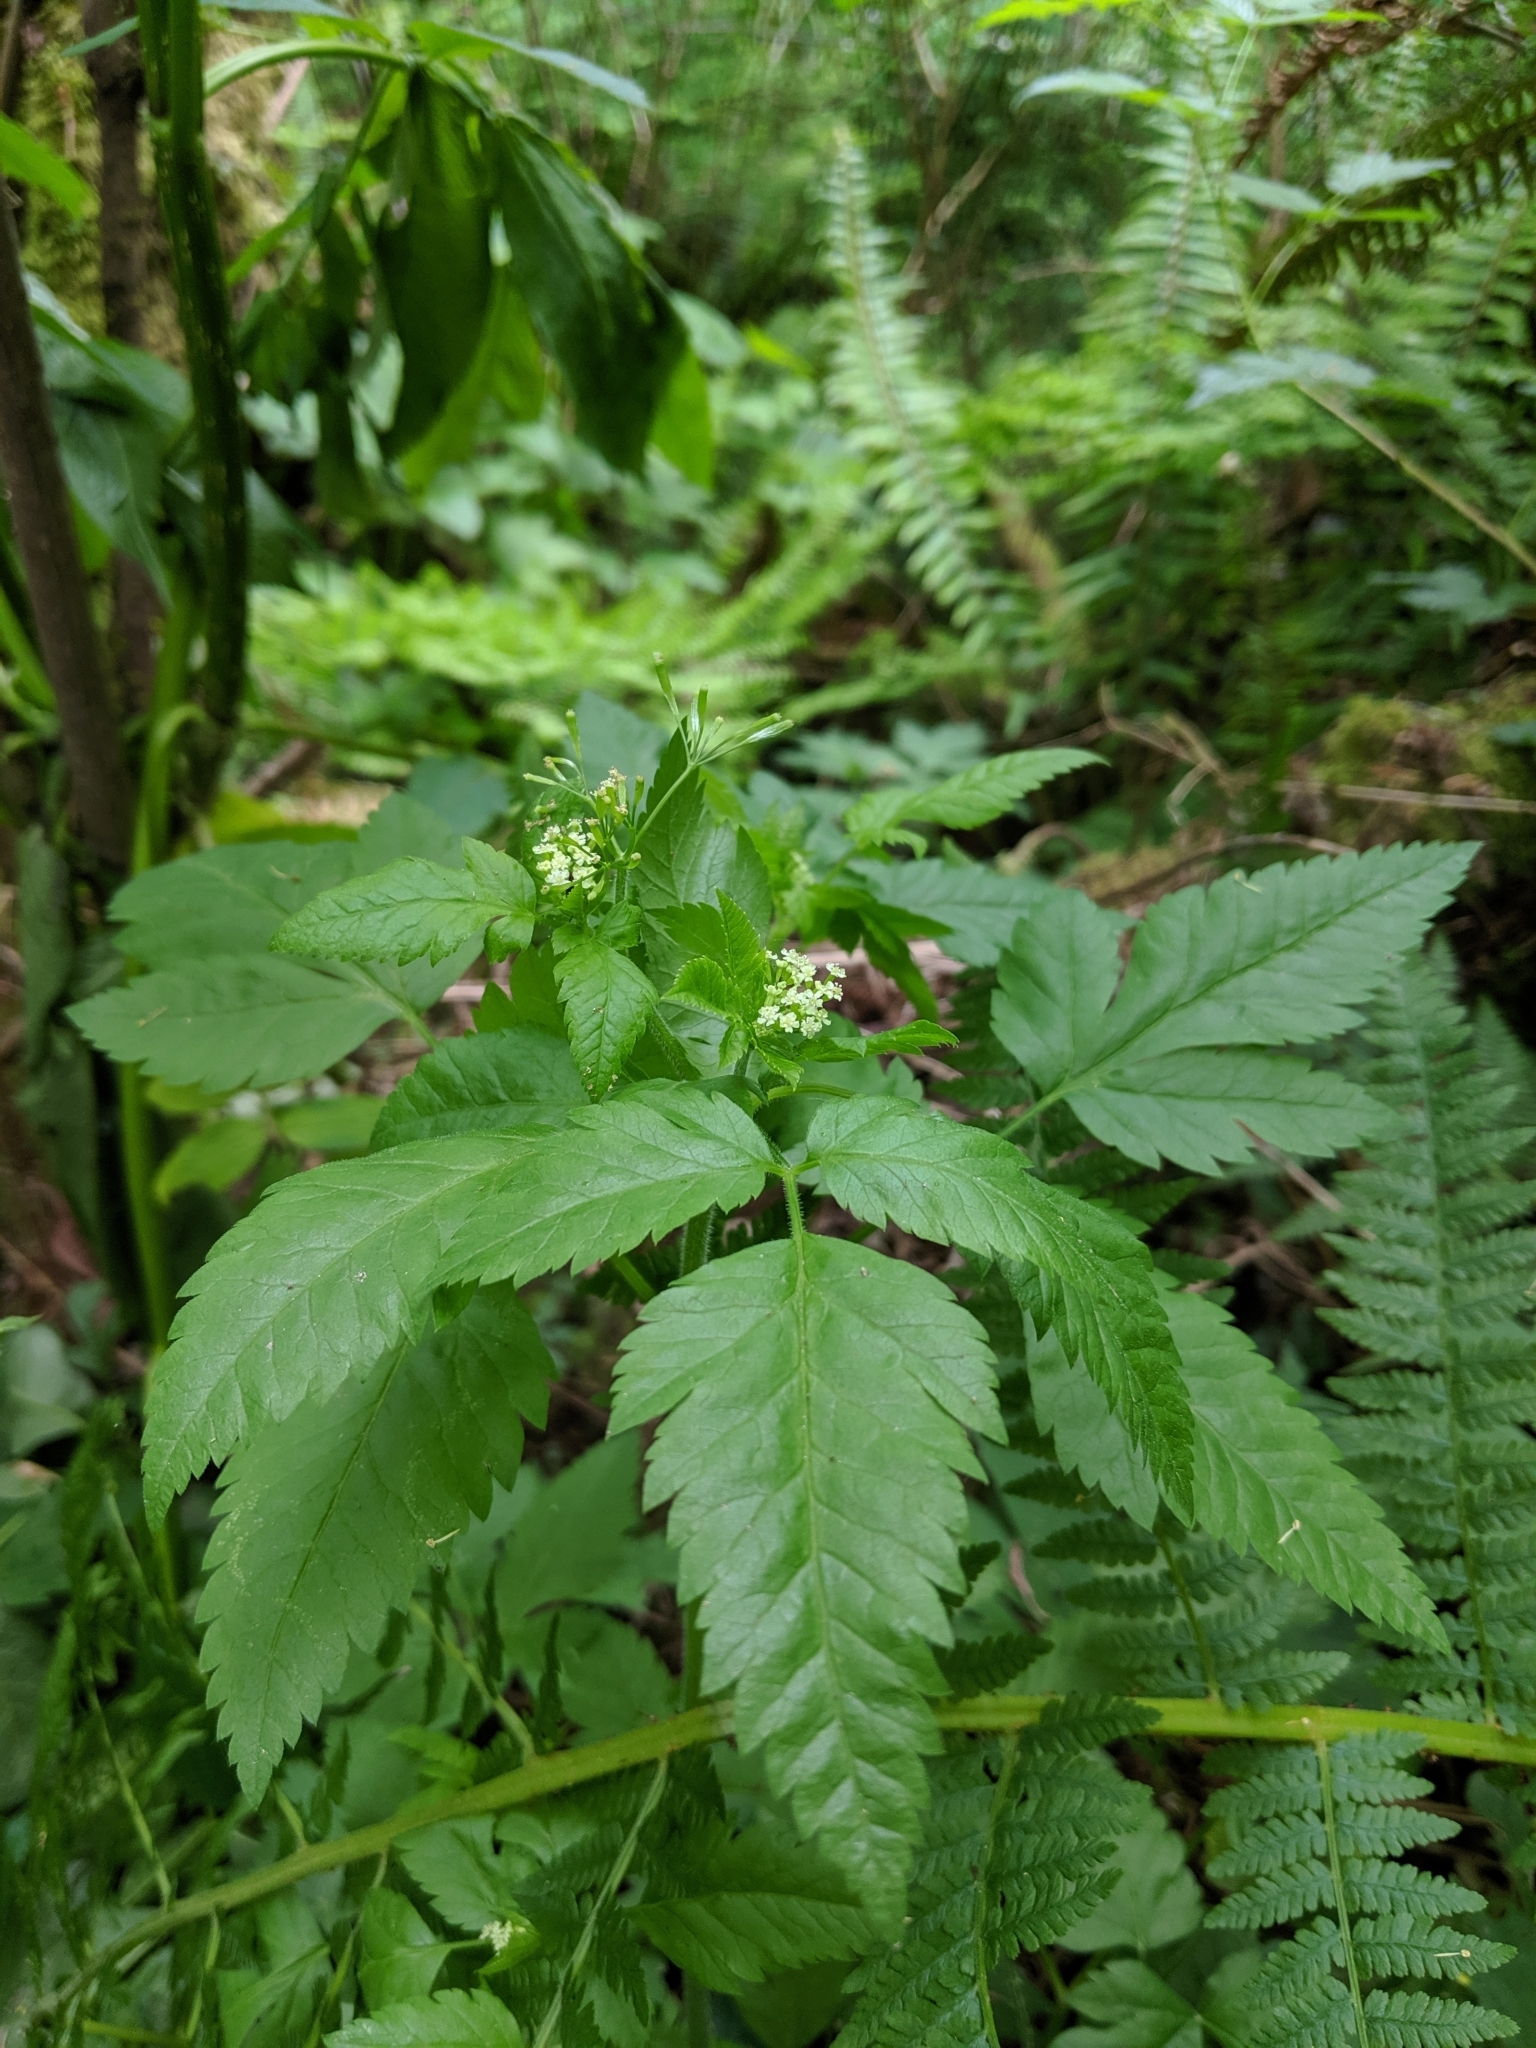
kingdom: Plantae
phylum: Tracheophyta
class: Magnoliopsida
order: Apiales
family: Apiaceae
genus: Osmorhiza
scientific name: Osmorhiza berteroi
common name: Mountain sweet cicely
